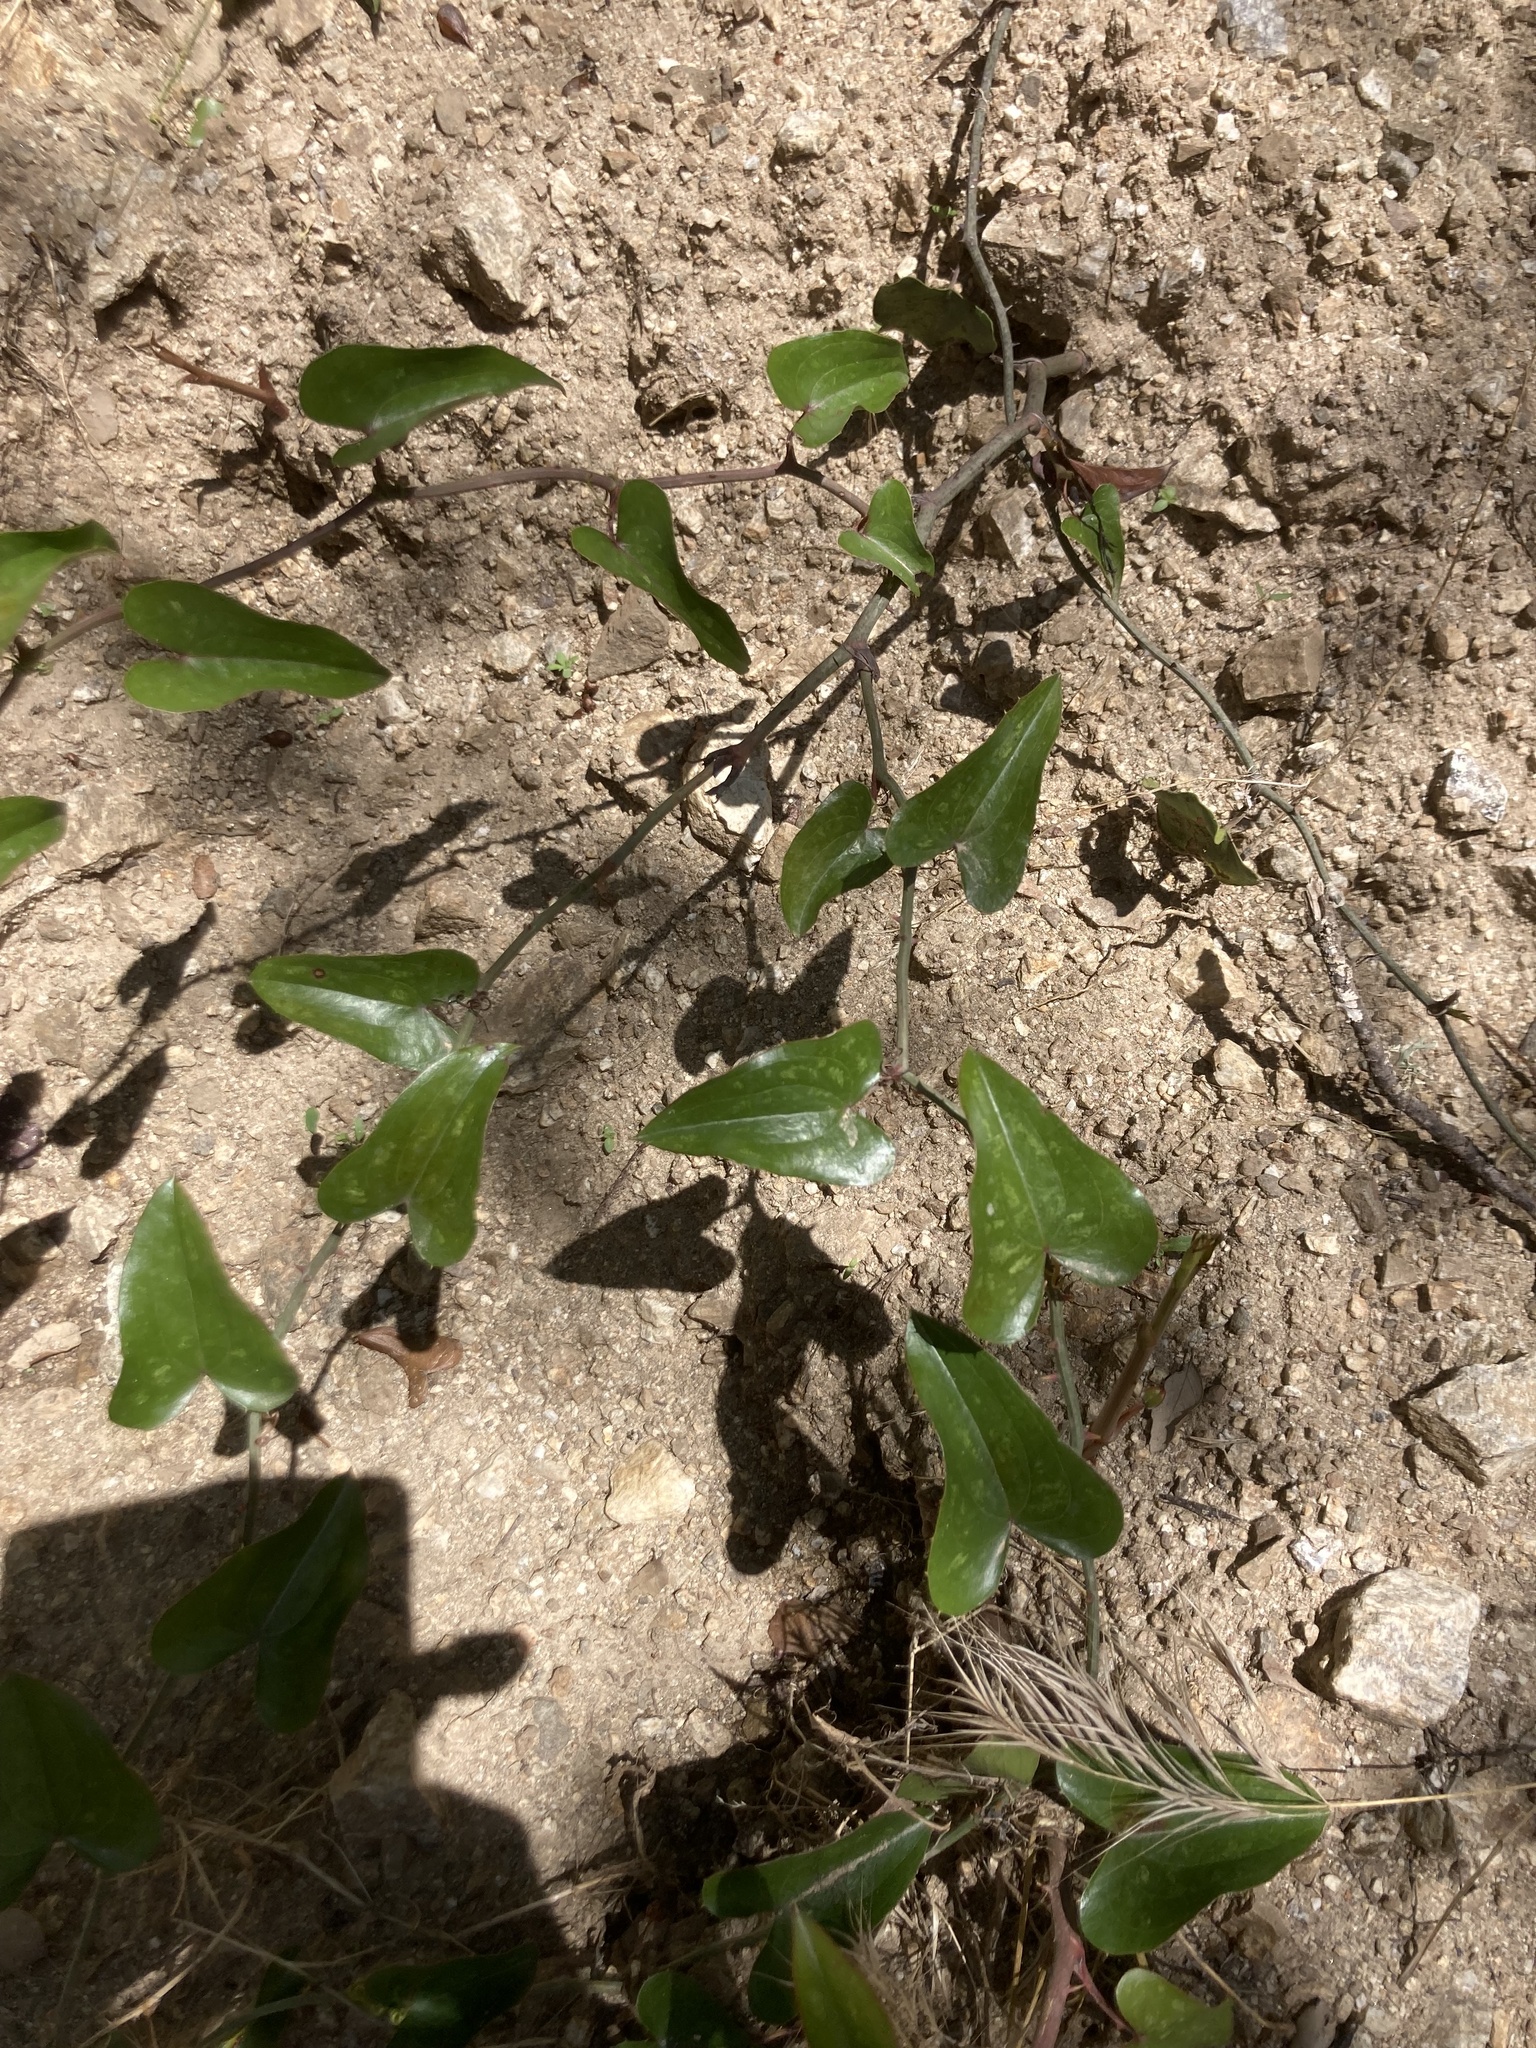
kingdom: Plantae
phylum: Tracheophyta
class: Liliopsida
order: Liliales
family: Smilacaceae
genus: Smilax
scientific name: Smilax aspera
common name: Common smilax
